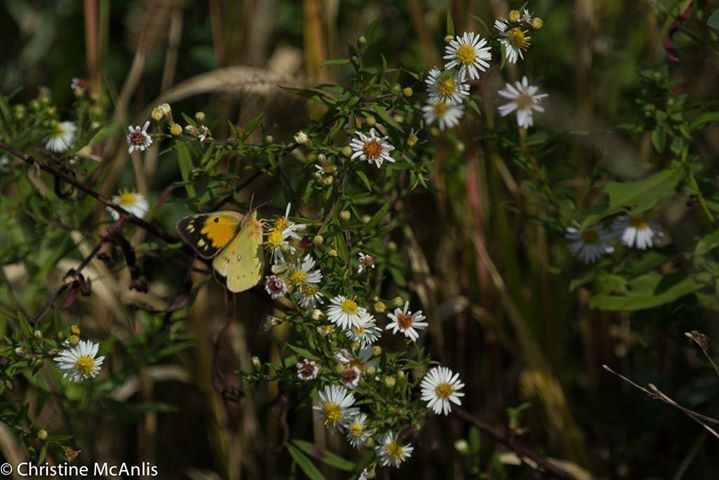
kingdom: Animalia
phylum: Arthropoda
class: Insecta
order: Lepidoptera
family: Pieridae
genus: Colias
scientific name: Colias eurytheme
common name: Alfalfa butterfly
